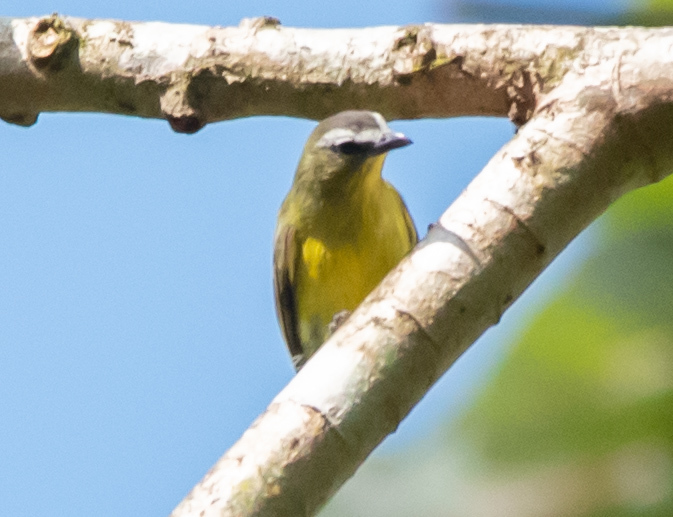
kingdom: Animalia
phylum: Chordata
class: Aves
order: Passeriformes
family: Tyrannidae
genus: Ornithion
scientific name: Ornithion brunneicapillus
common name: Brown-capped tyrannulet
